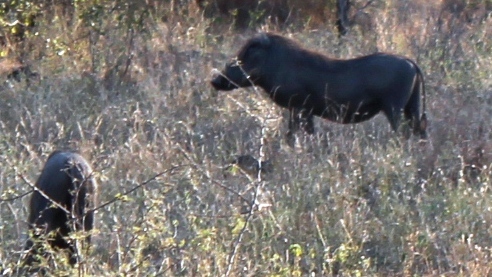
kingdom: Animalia
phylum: Chordata
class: Mammalia
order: Artiodactyla
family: Suidae
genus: Phacochoerus
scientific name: Phacochoerus africanus
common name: Common warthog
